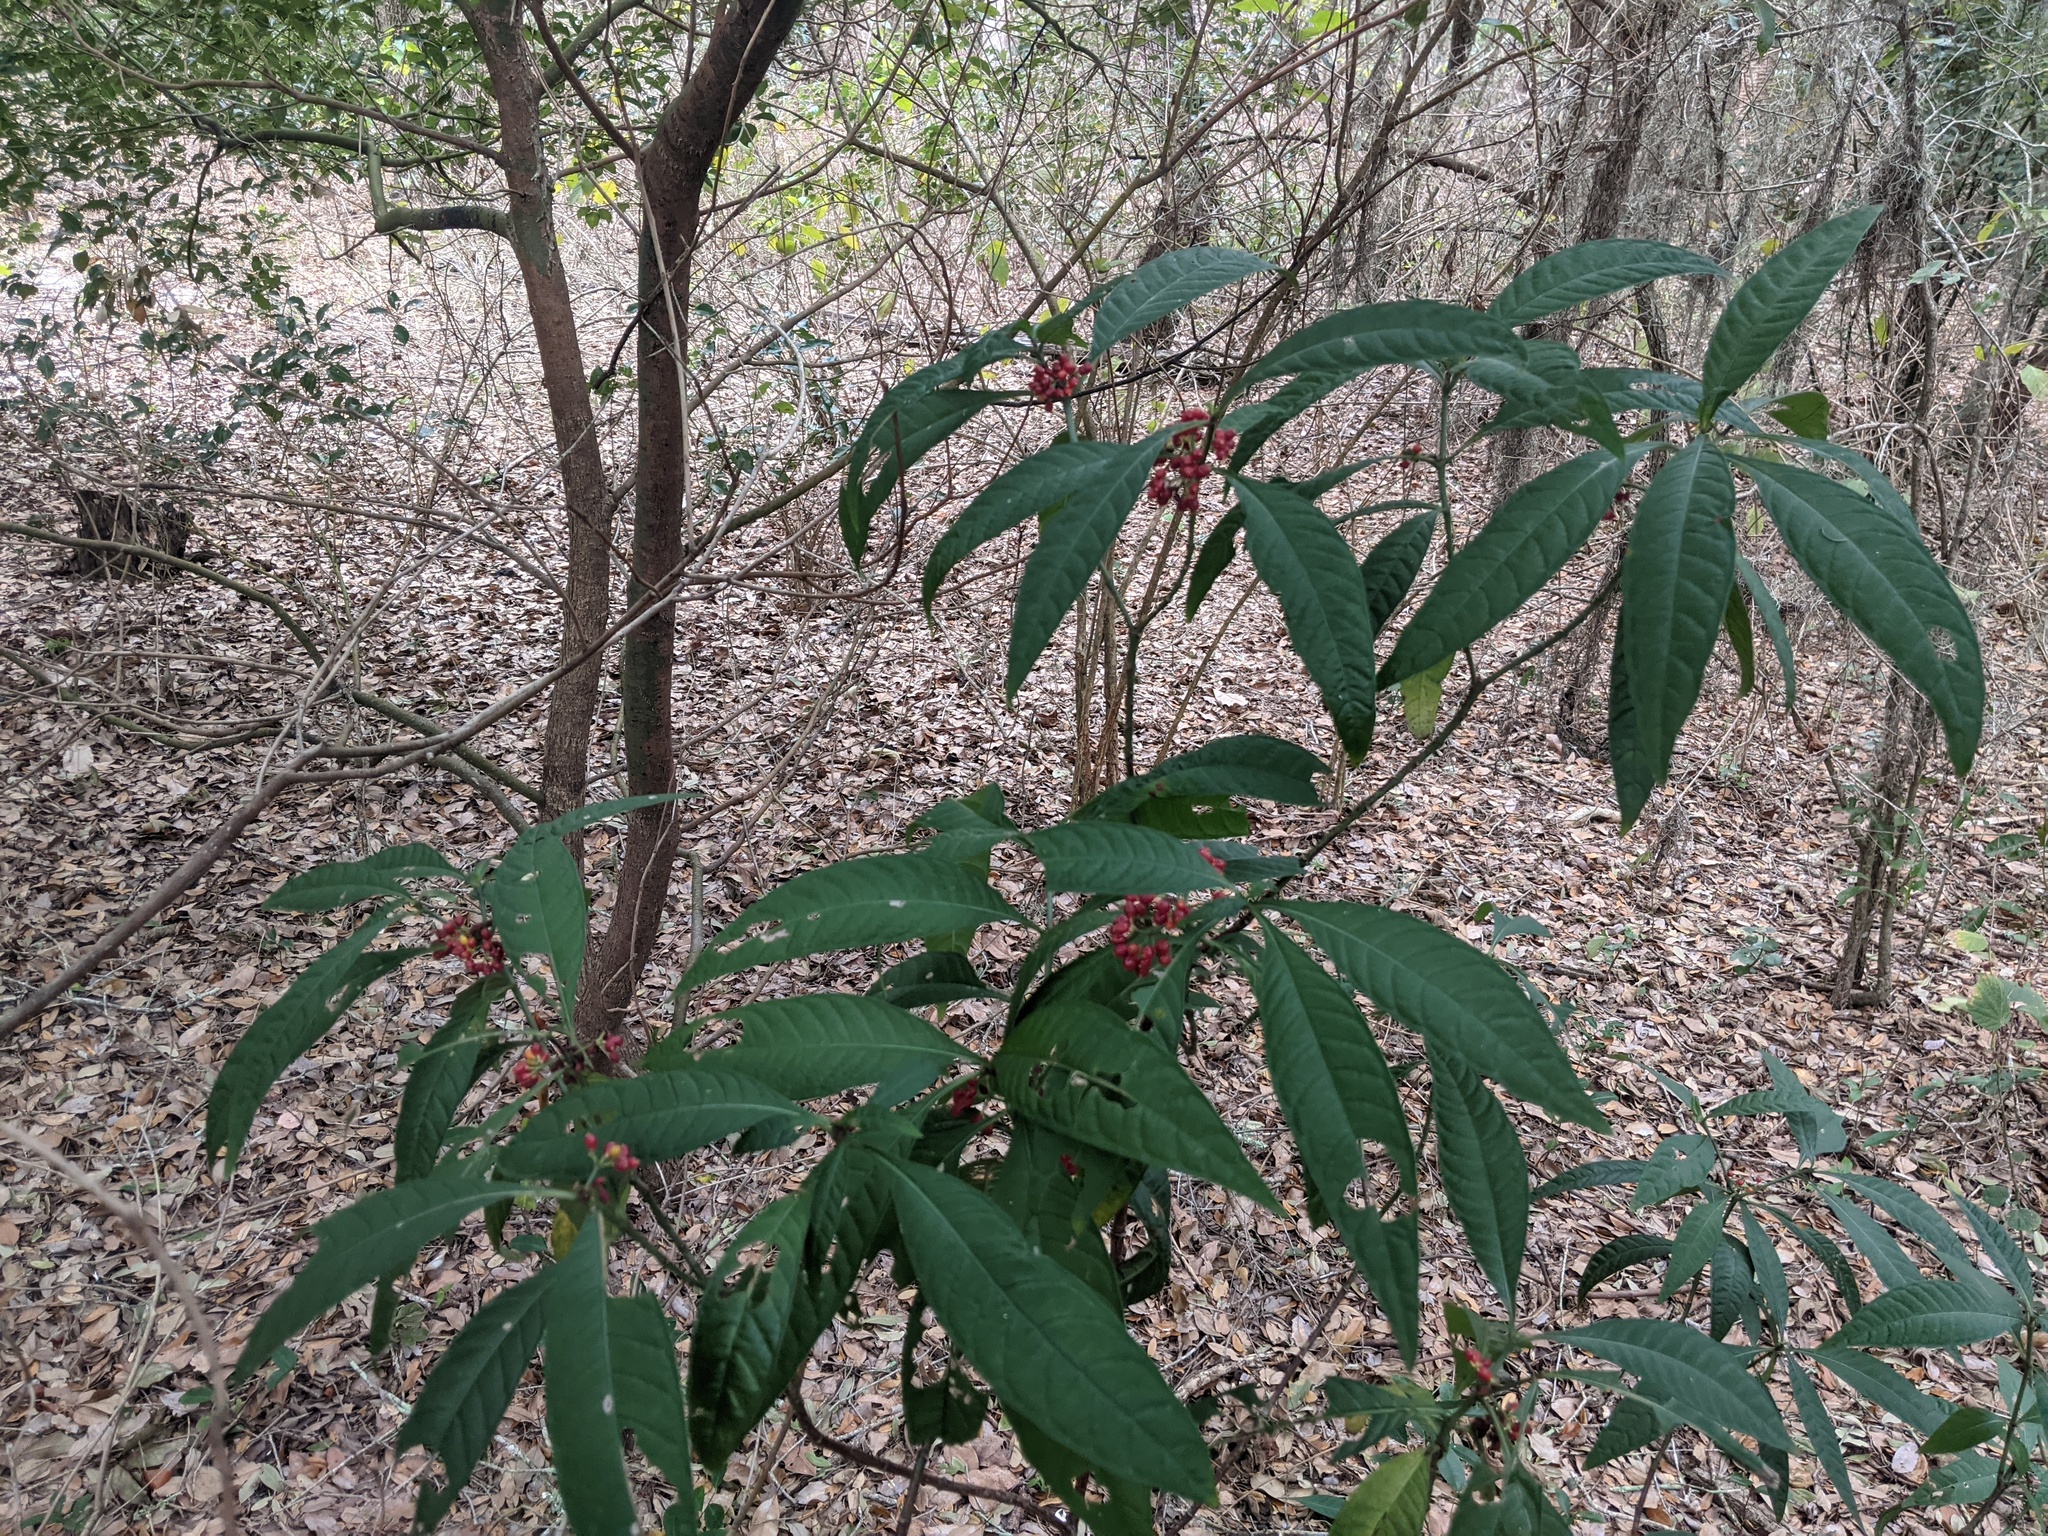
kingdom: Plantae
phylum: Tracheophyta
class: Magnoliopsida
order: Gentianales
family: Rubiaceae
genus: Psychotria
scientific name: Psychotria tenuifolia
